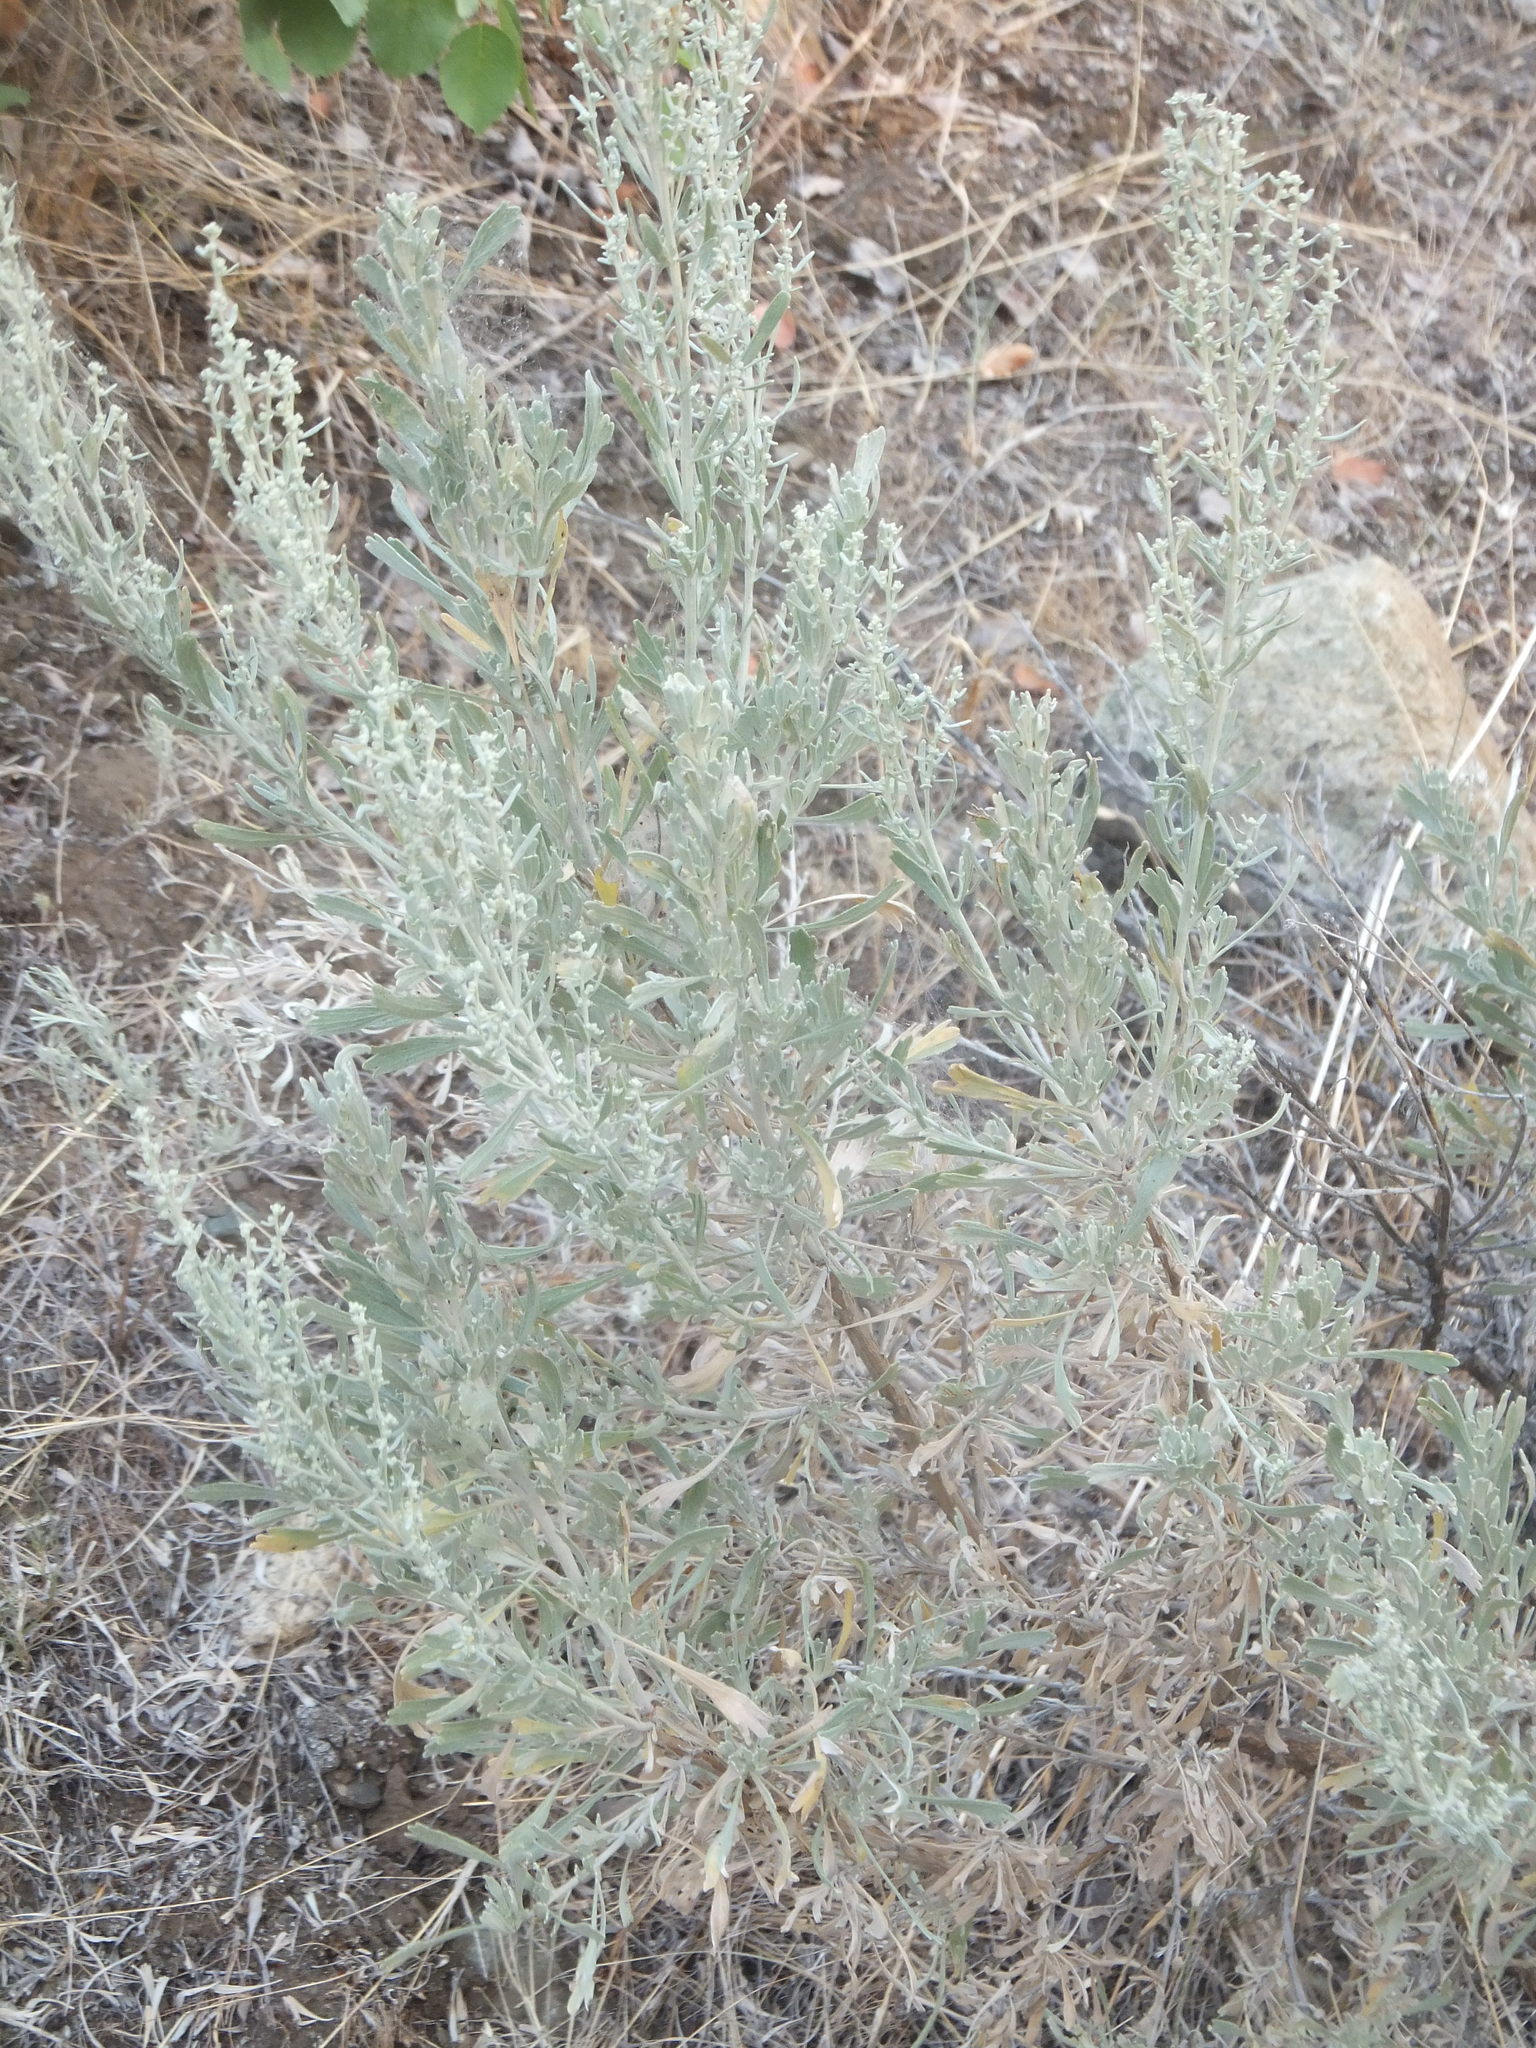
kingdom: Plantae
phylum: Tracheophyta
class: Magnoliopsida
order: Asterales
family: Asteraceae
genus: Artemisia
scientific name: Artemisia tridentata
